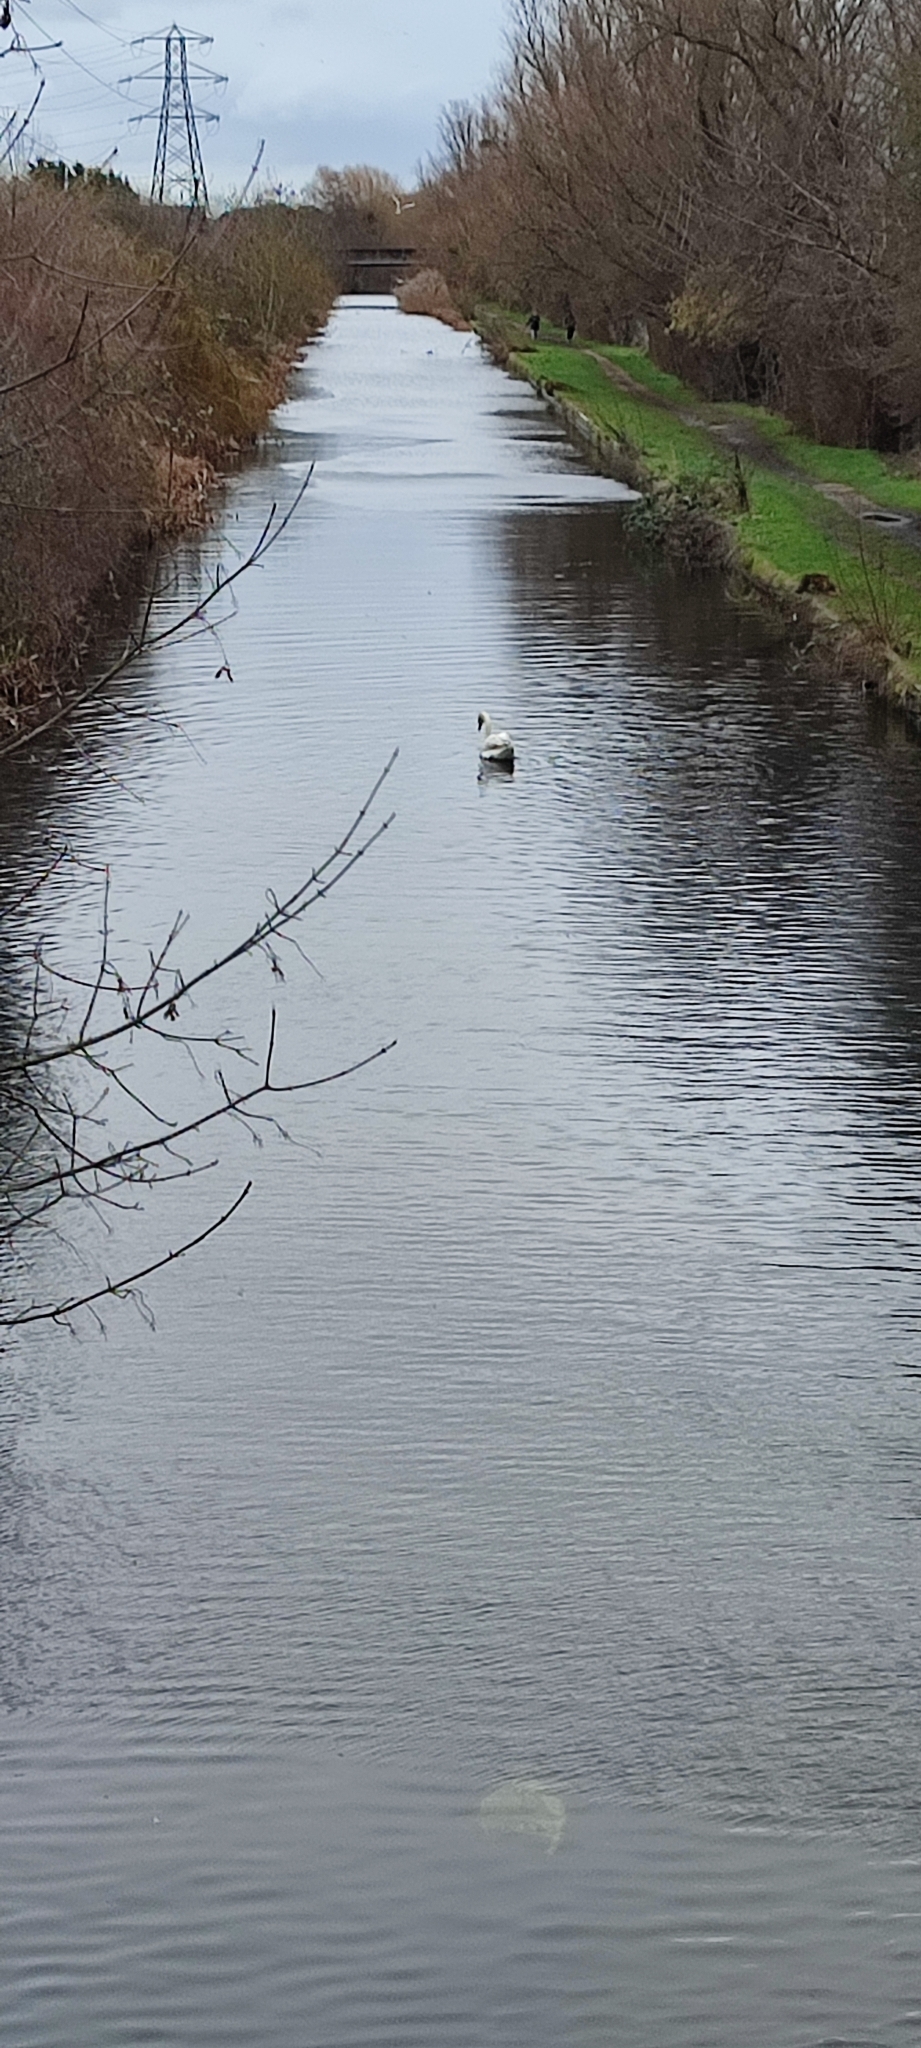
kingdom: Animalia
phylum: Chordata
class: Aves
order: Anseriformes
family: Anatidae
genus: Cygnus
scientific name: Cygnus olor
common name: Mute swan
